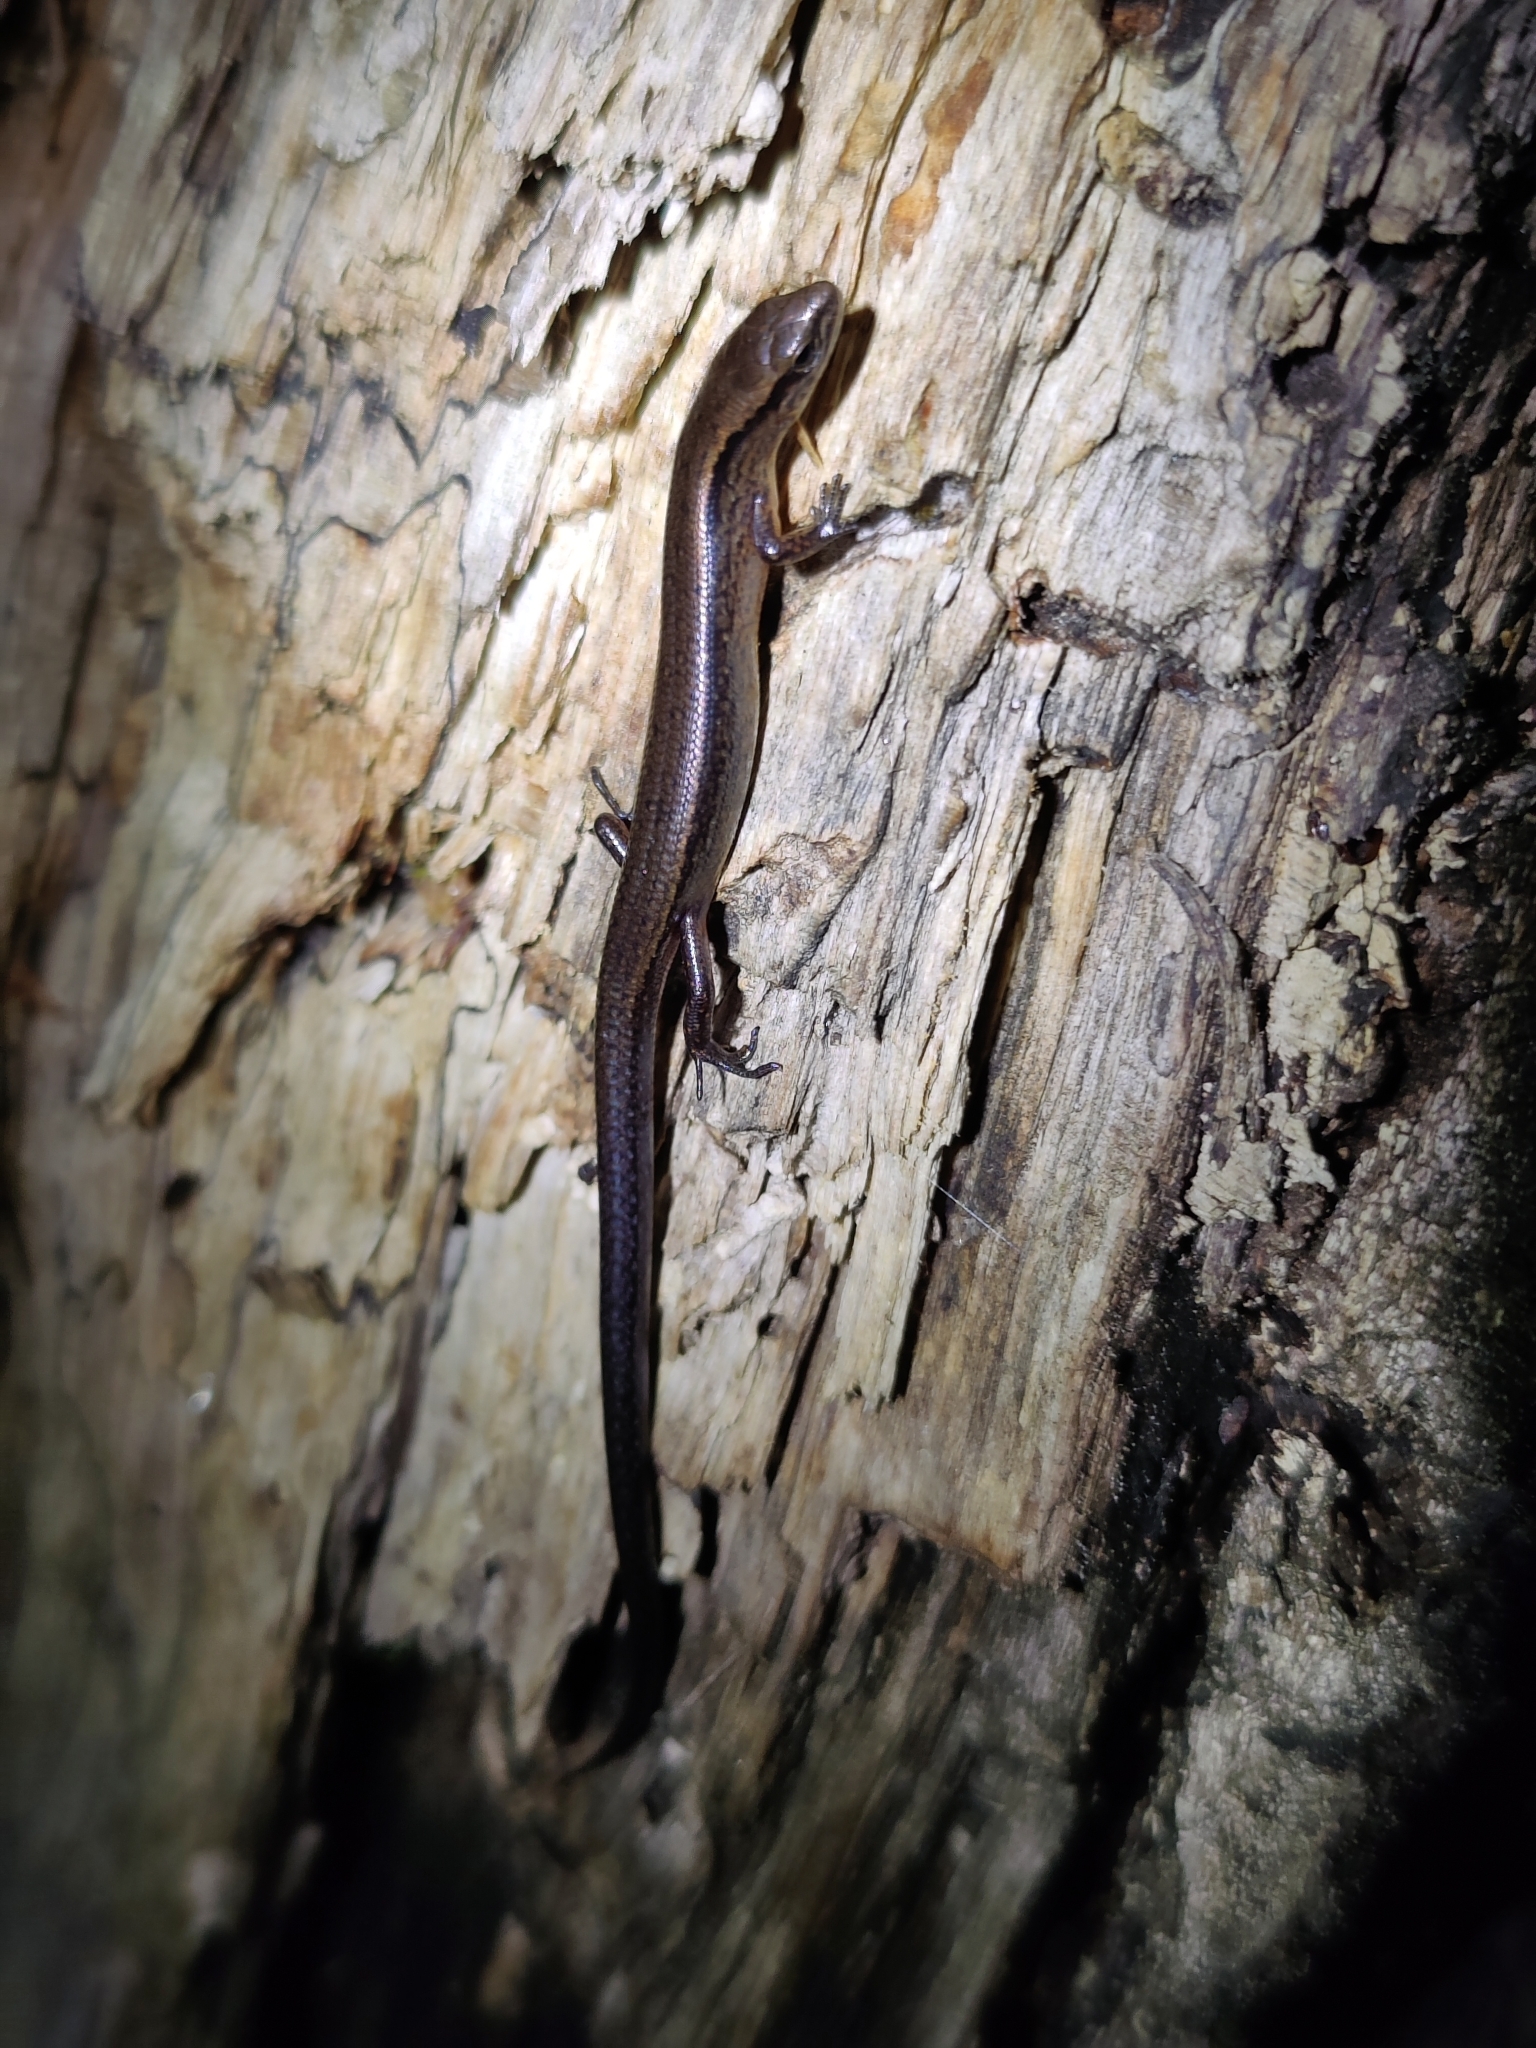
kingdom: Animalia
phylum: Chordata
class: Squamata
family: Scincidae
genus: Protoblepharus
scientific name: Protoblepharus apatani
